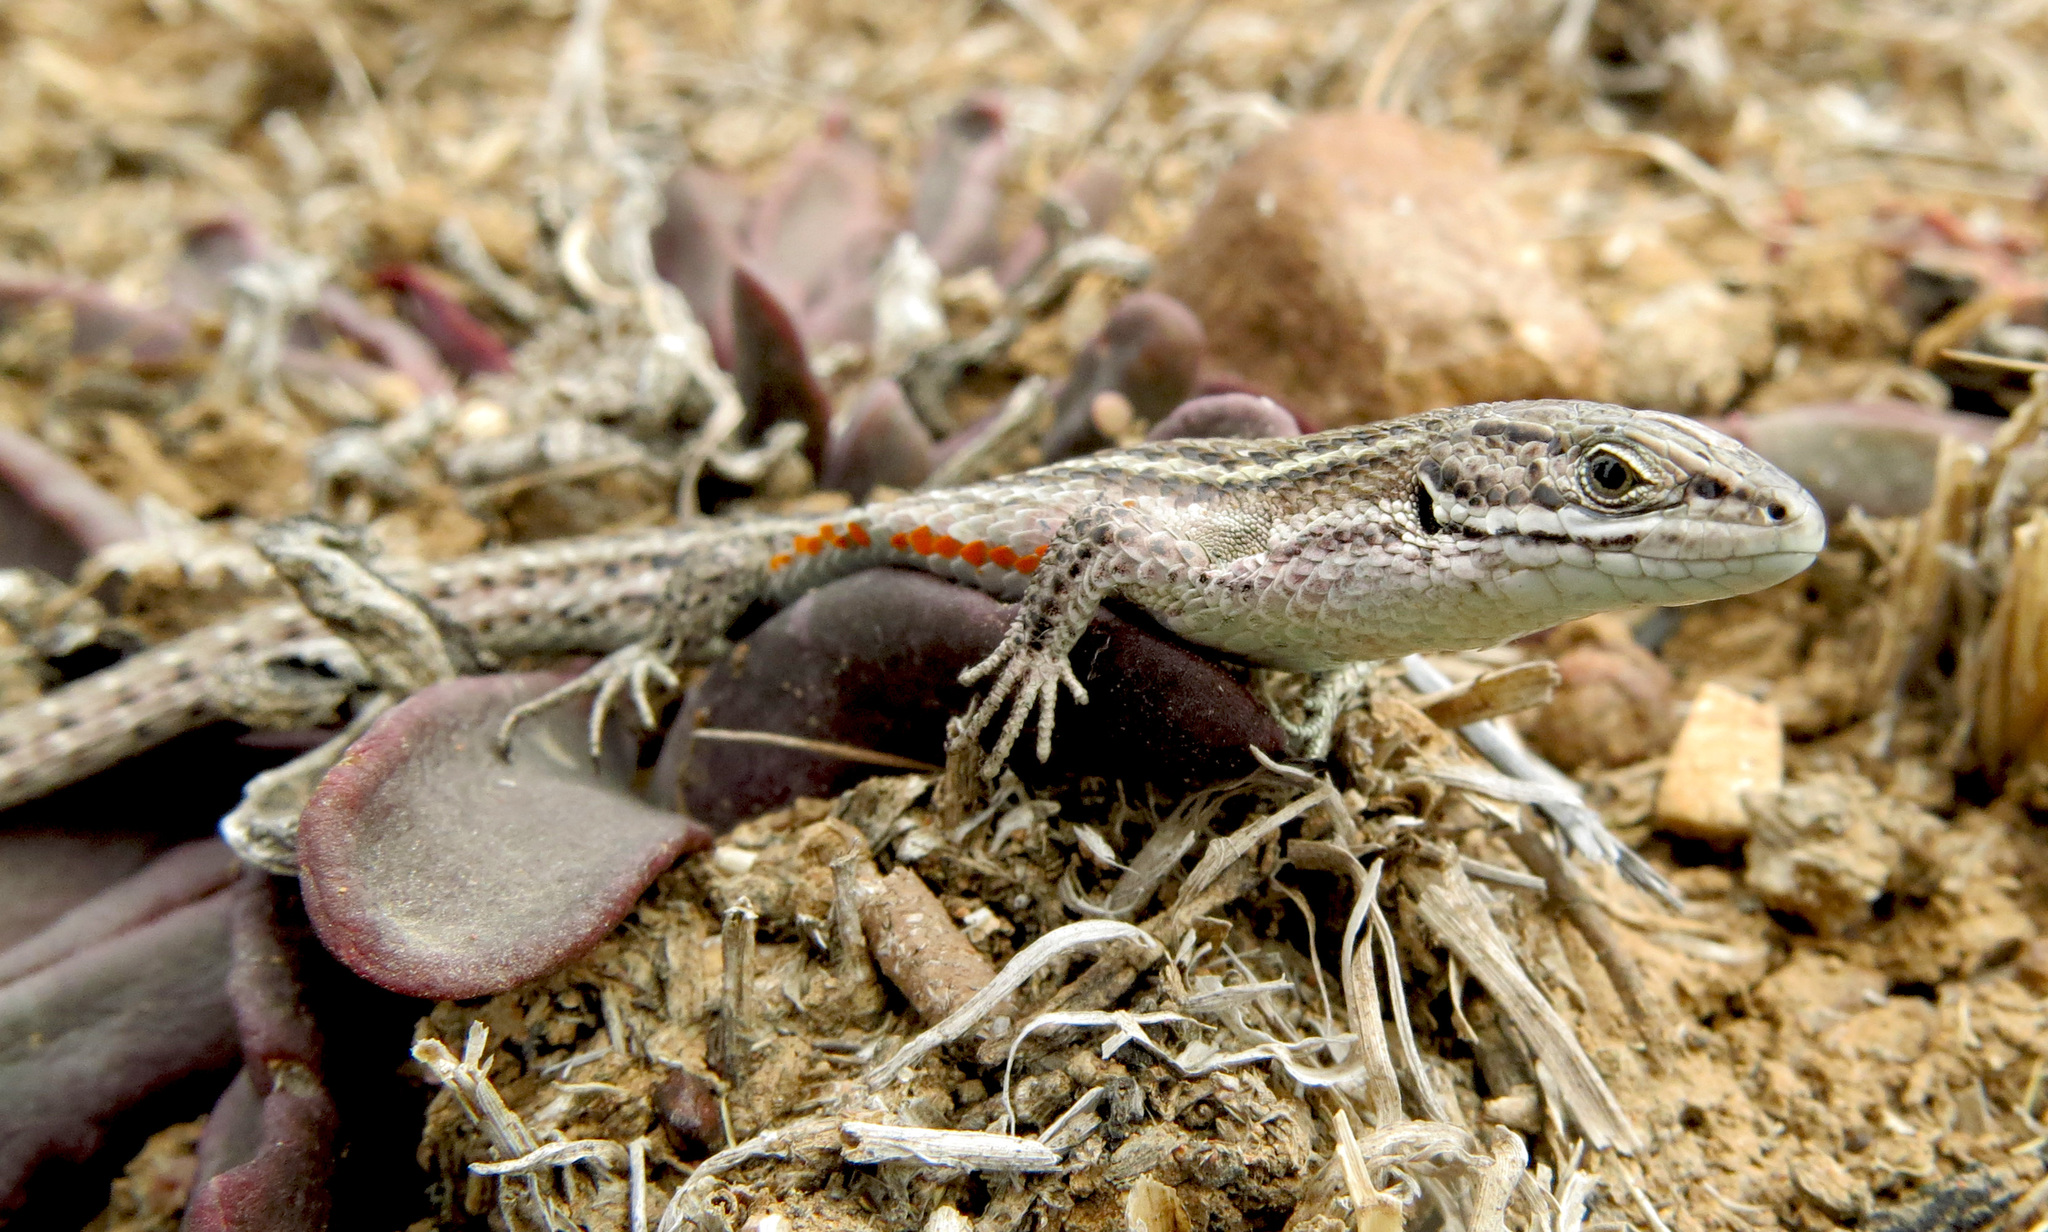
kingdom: Animalia
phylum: Chordata
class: Squamata
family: Lacertidae
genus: Tropidosaura
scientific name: Tropidosaura montana
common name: Green-striped mountain lizard
